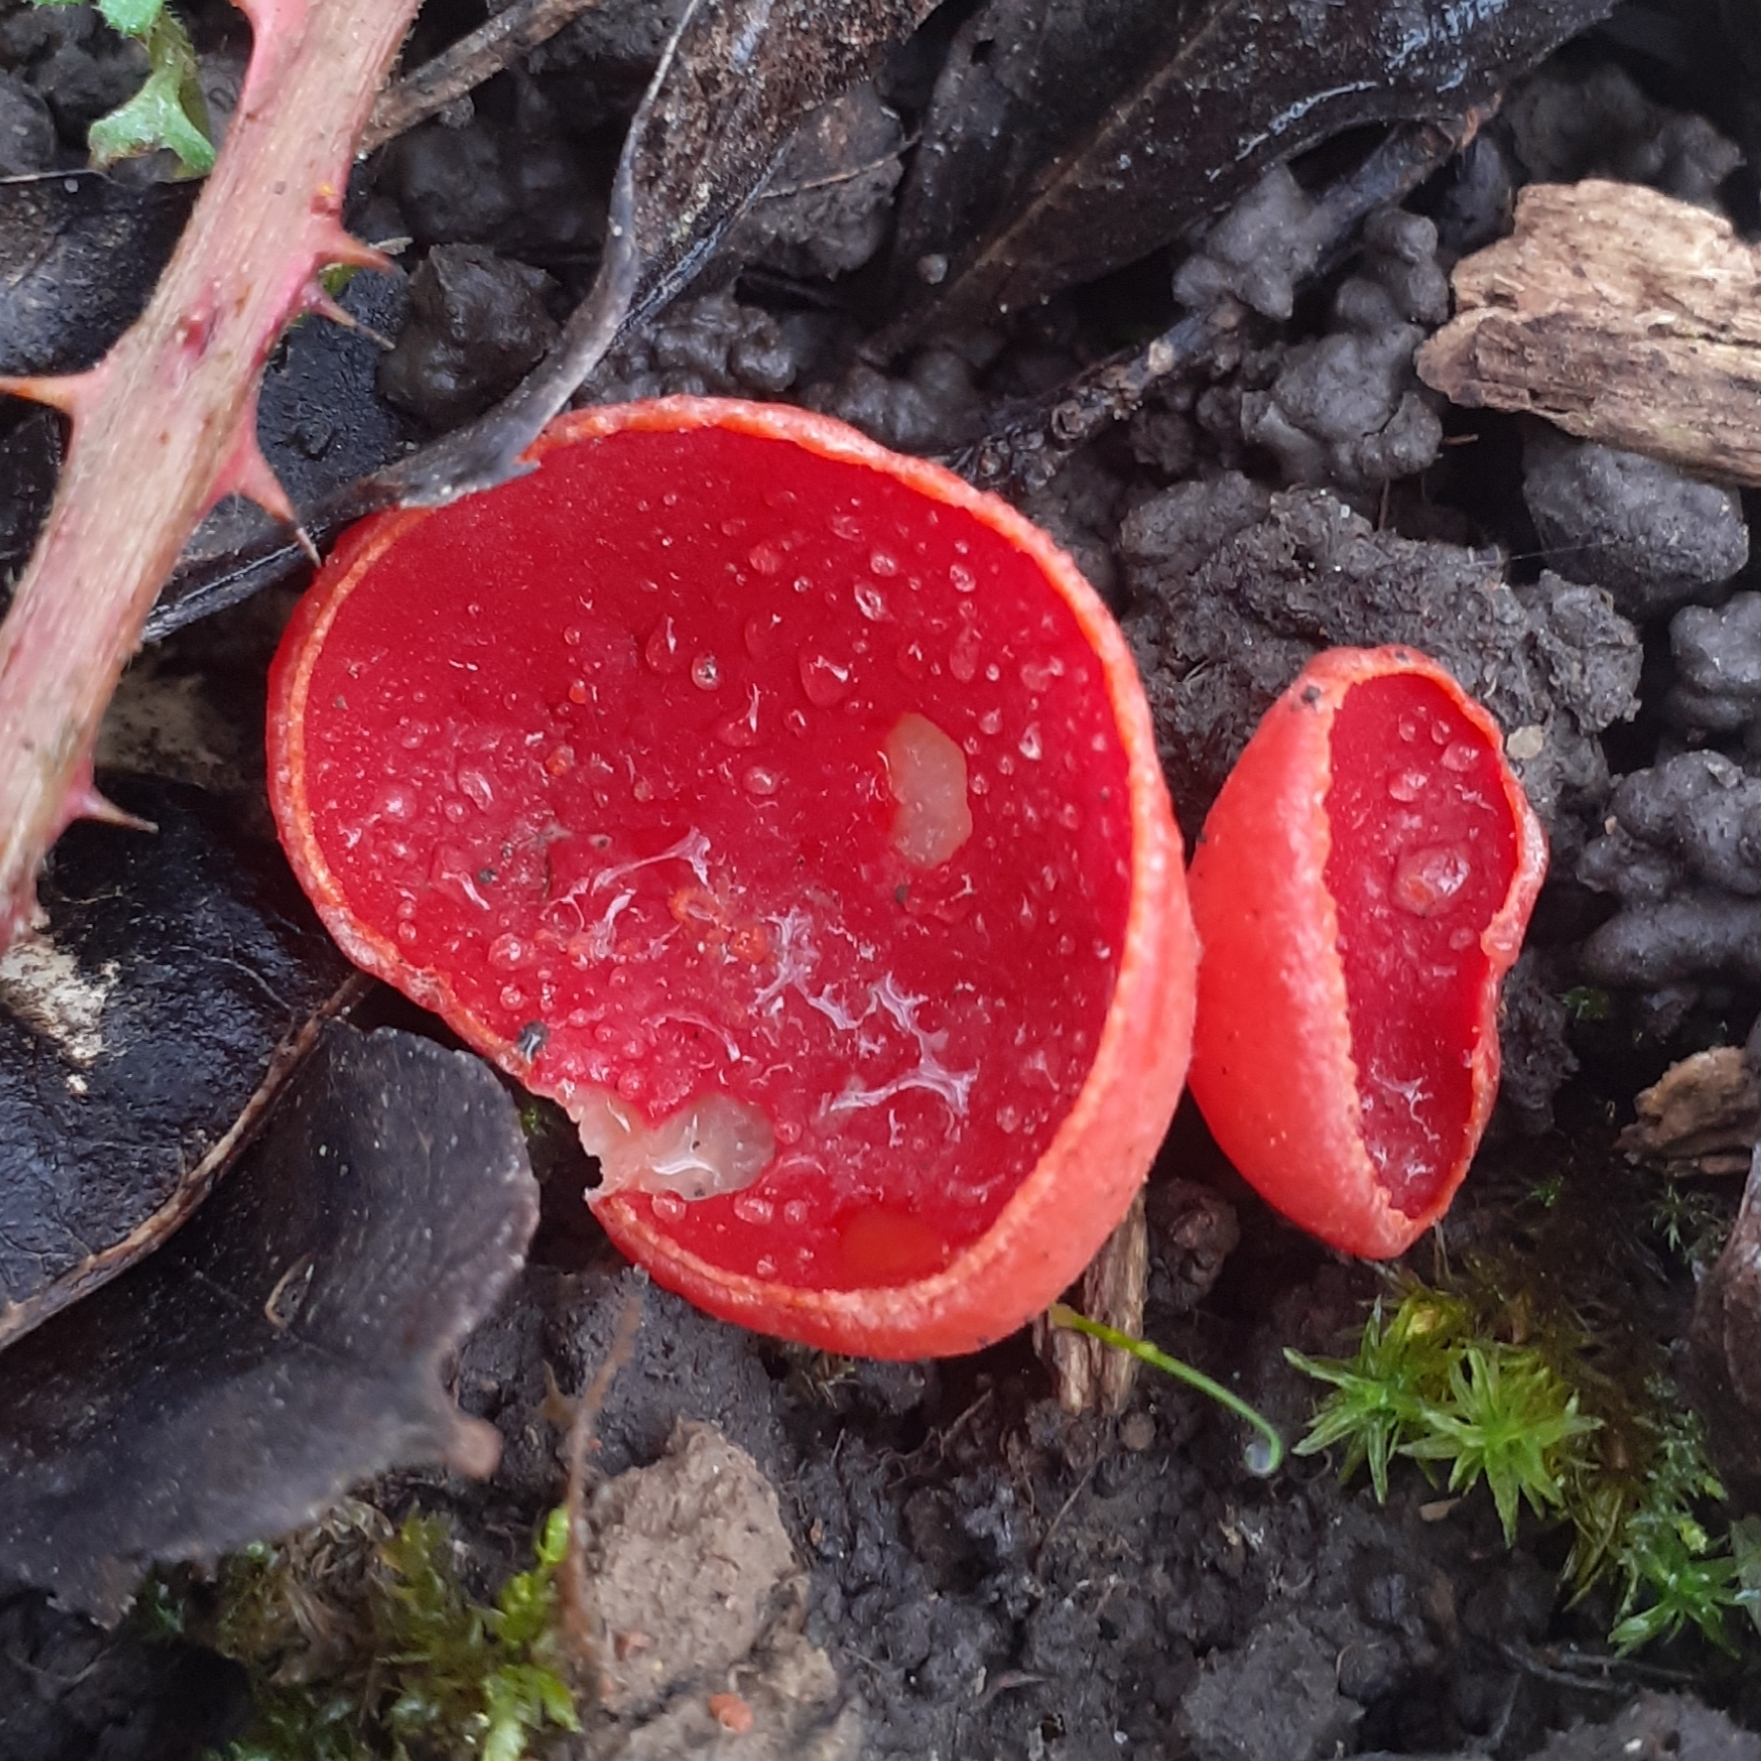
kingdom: Fungi
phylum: Ascomycota
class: Pezizomycetes
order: Pezizales
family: Sarcoscyphaceae
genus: Sarcoscypha
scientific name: Sarcoscypha
